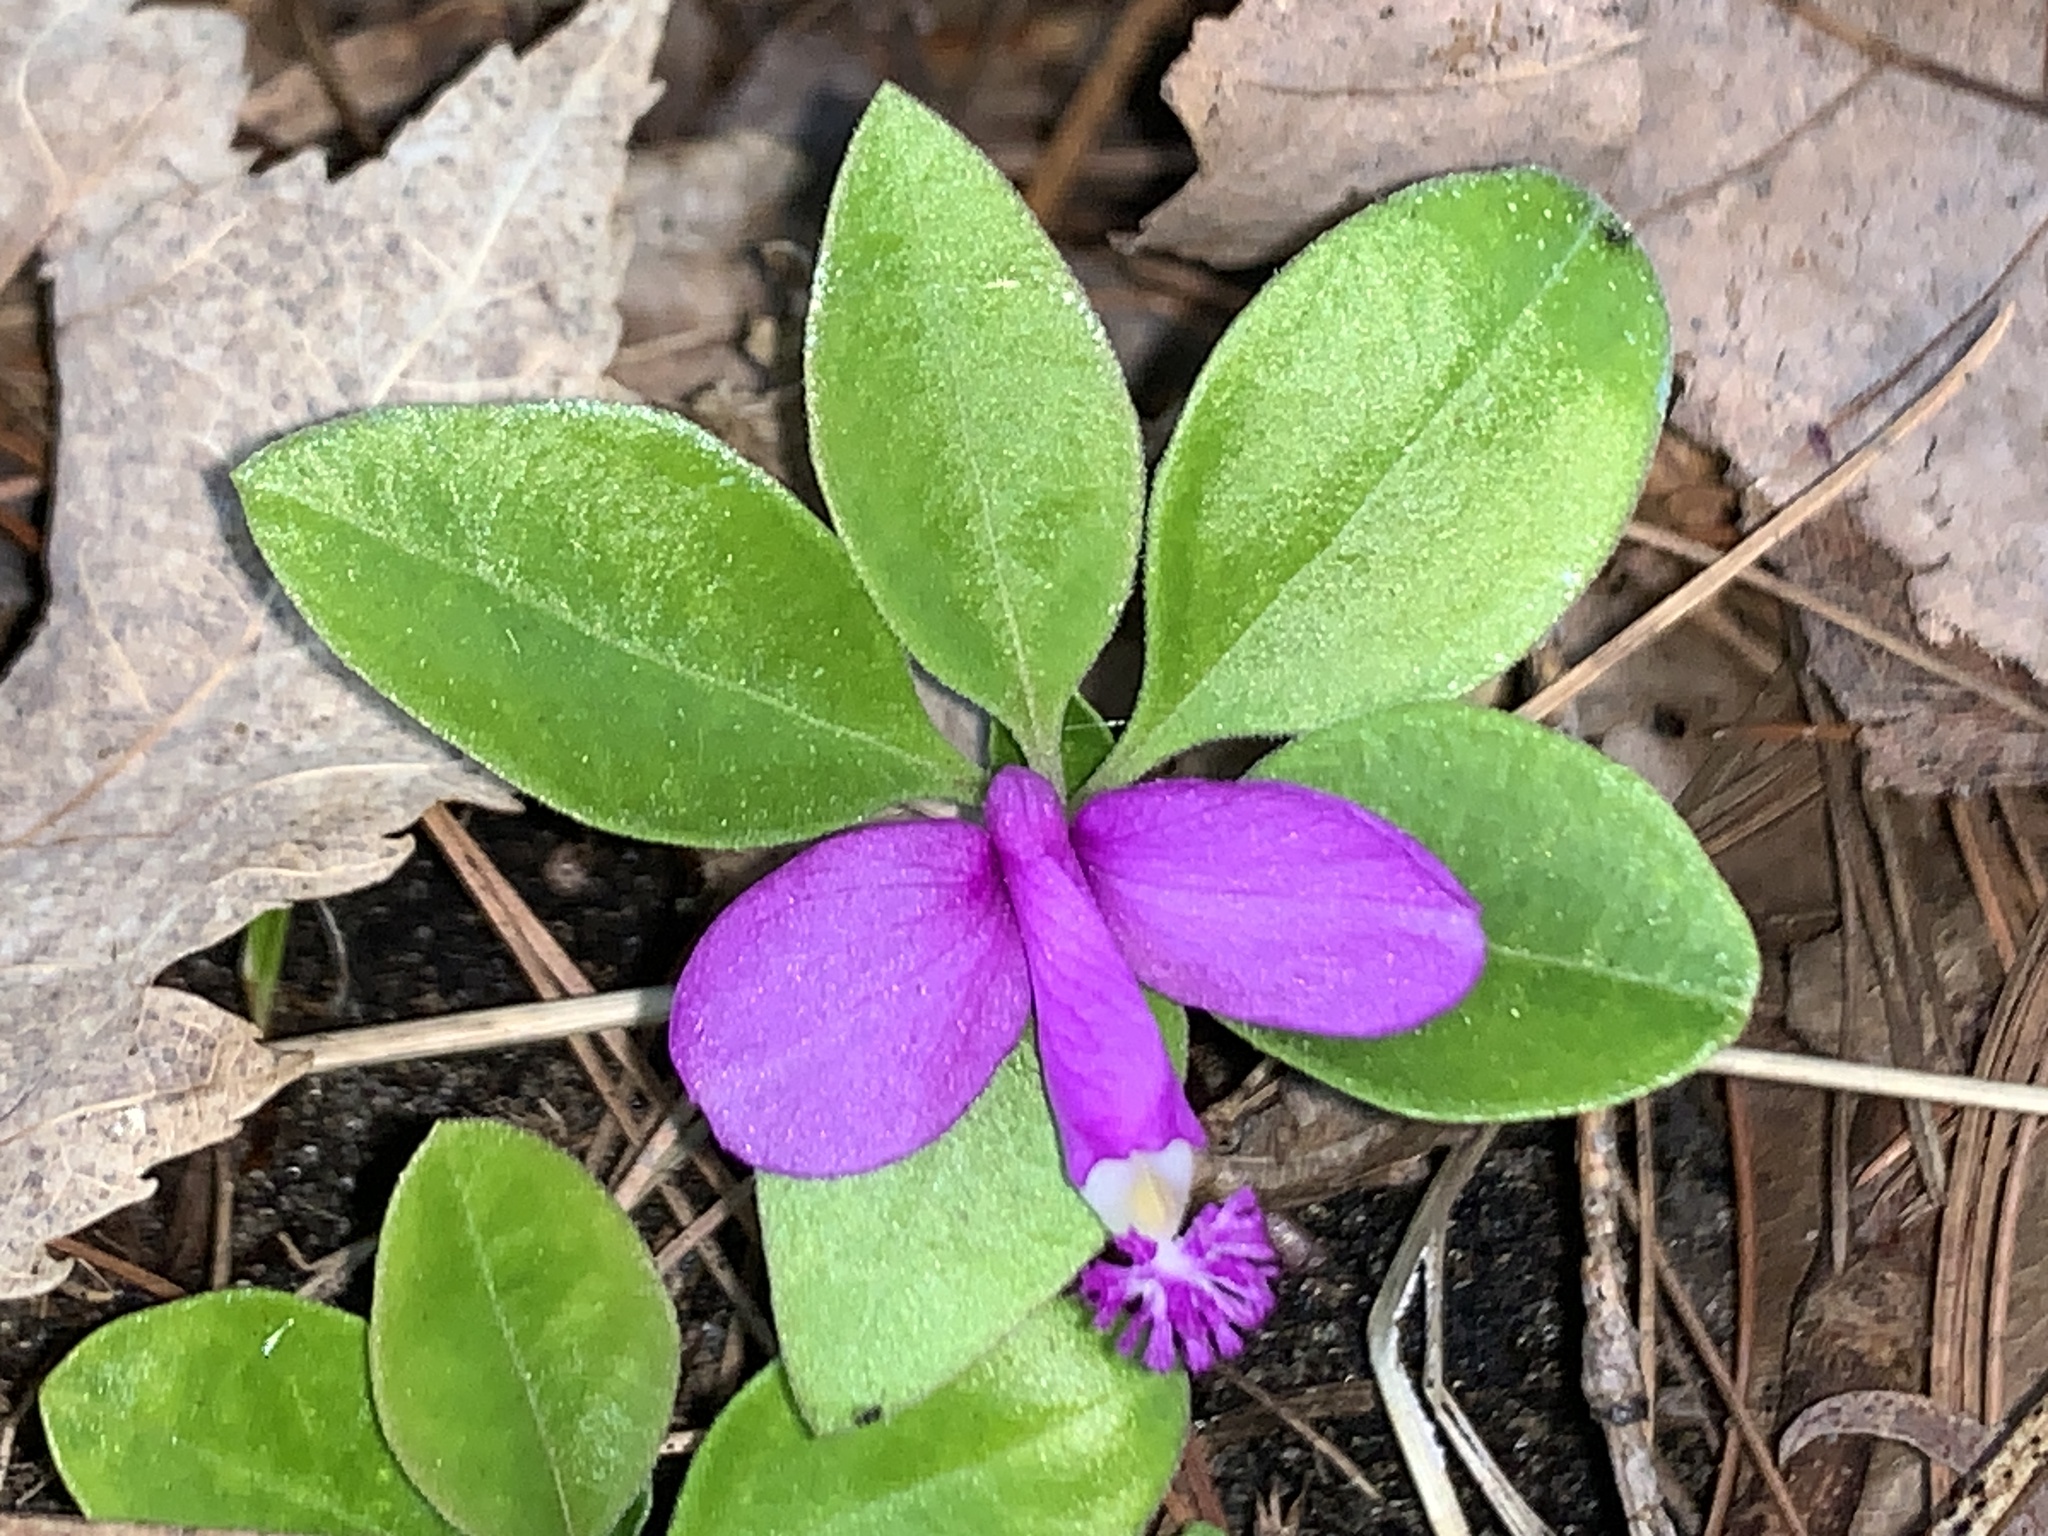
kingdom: Plantae
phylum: Tracheophyta
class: Magnoliopsida
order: Fabales
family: Polygalaceae
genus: Polygaloides
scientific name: Polygaloides paucifolia
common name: Bird-on-the-wing
